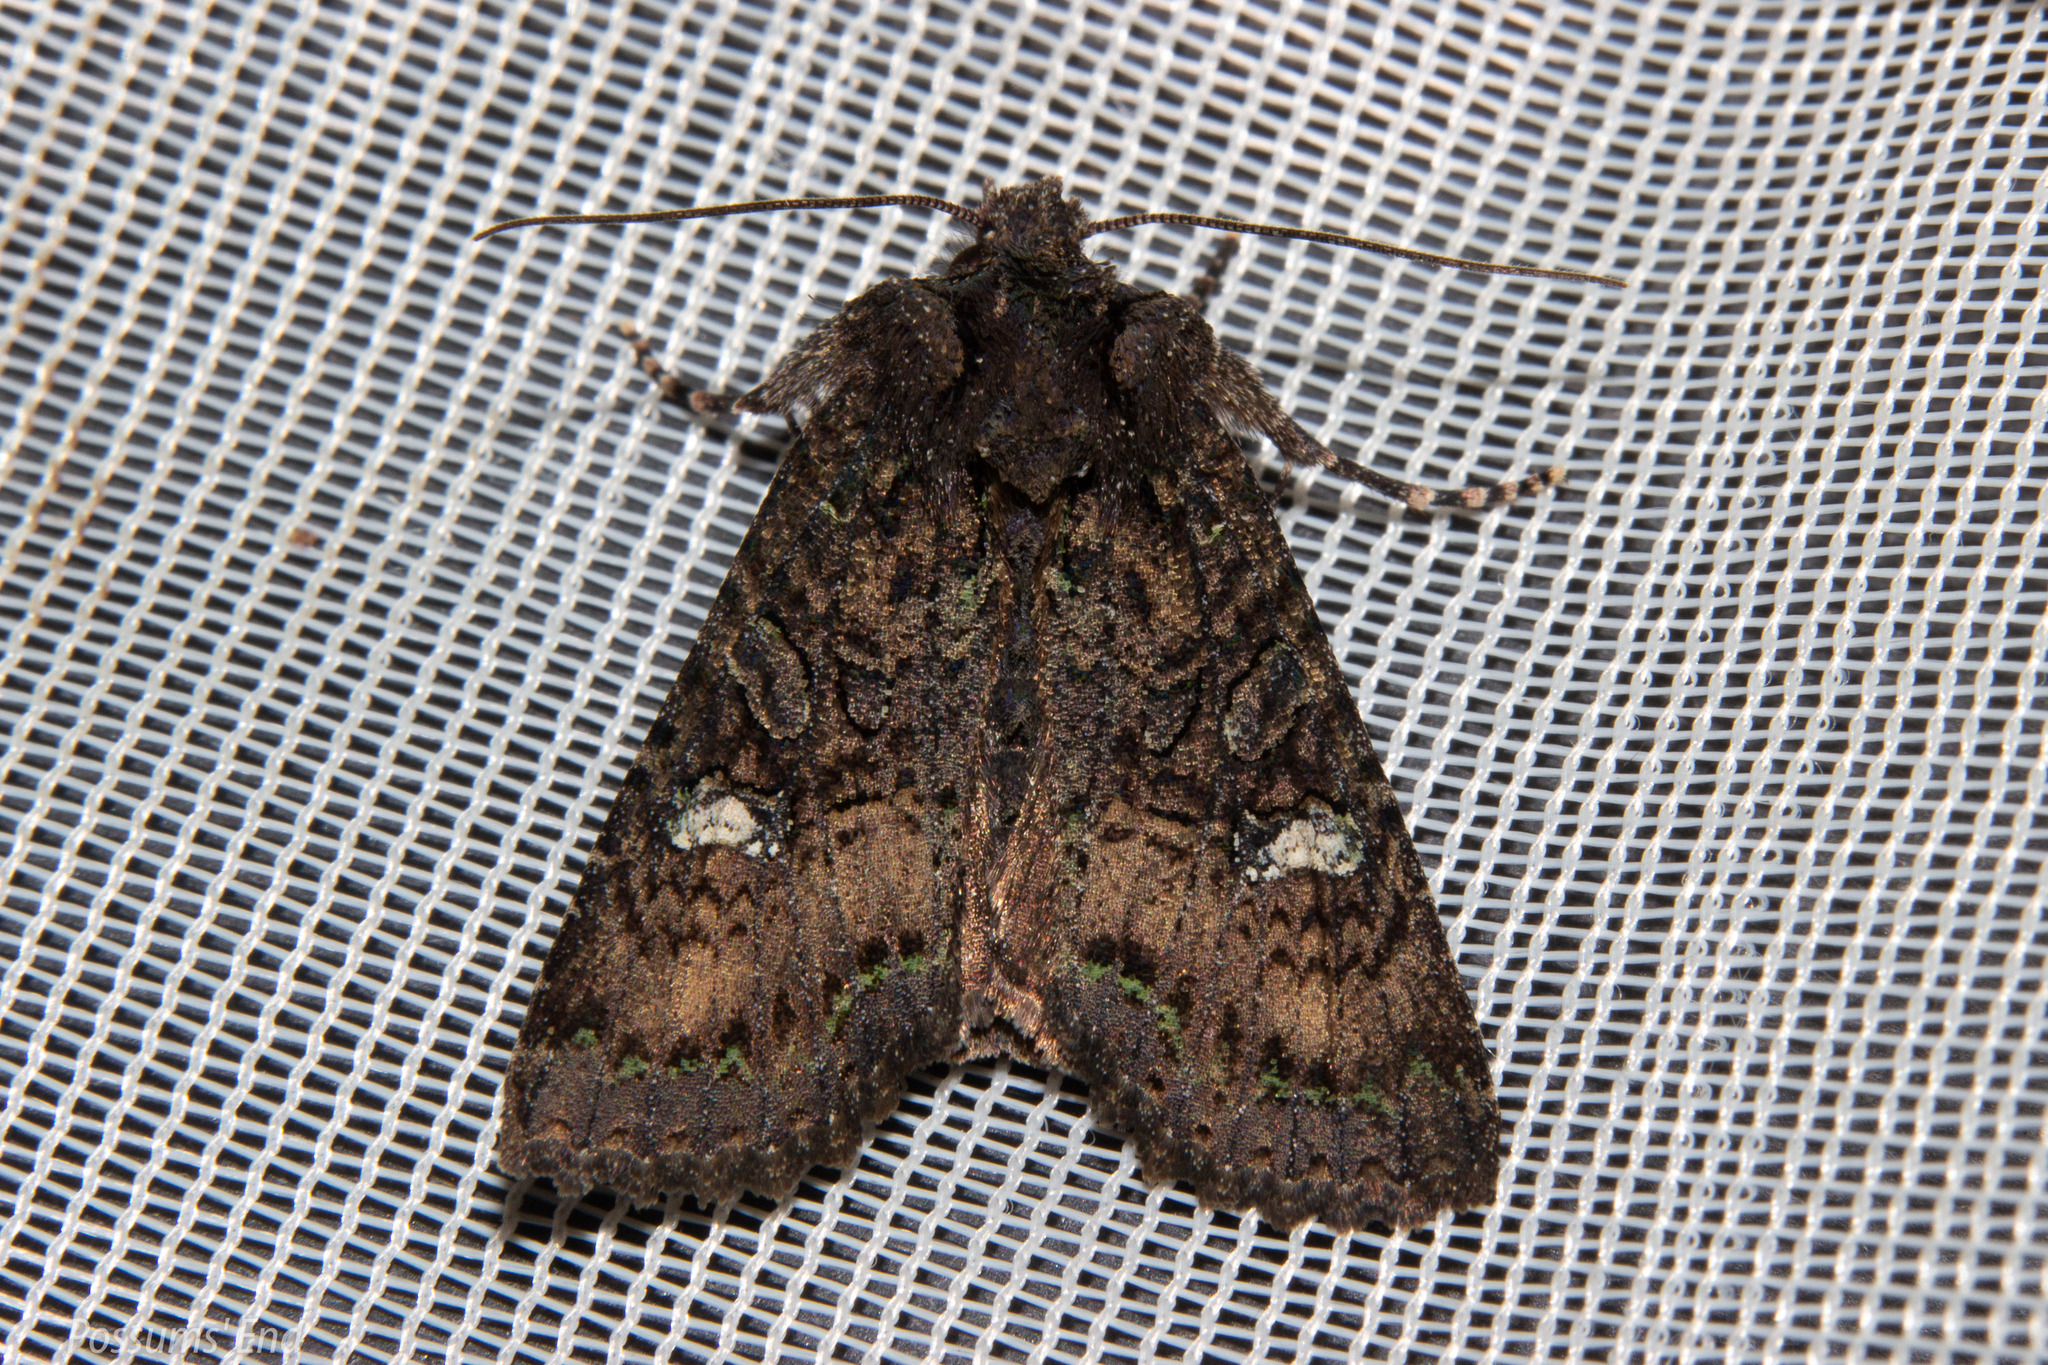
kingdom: Animalia
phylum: Arthropoda
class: Insecta
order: Lepidoptera
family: Noctuidae
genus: Meterana
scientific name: Meterana ochthistis
